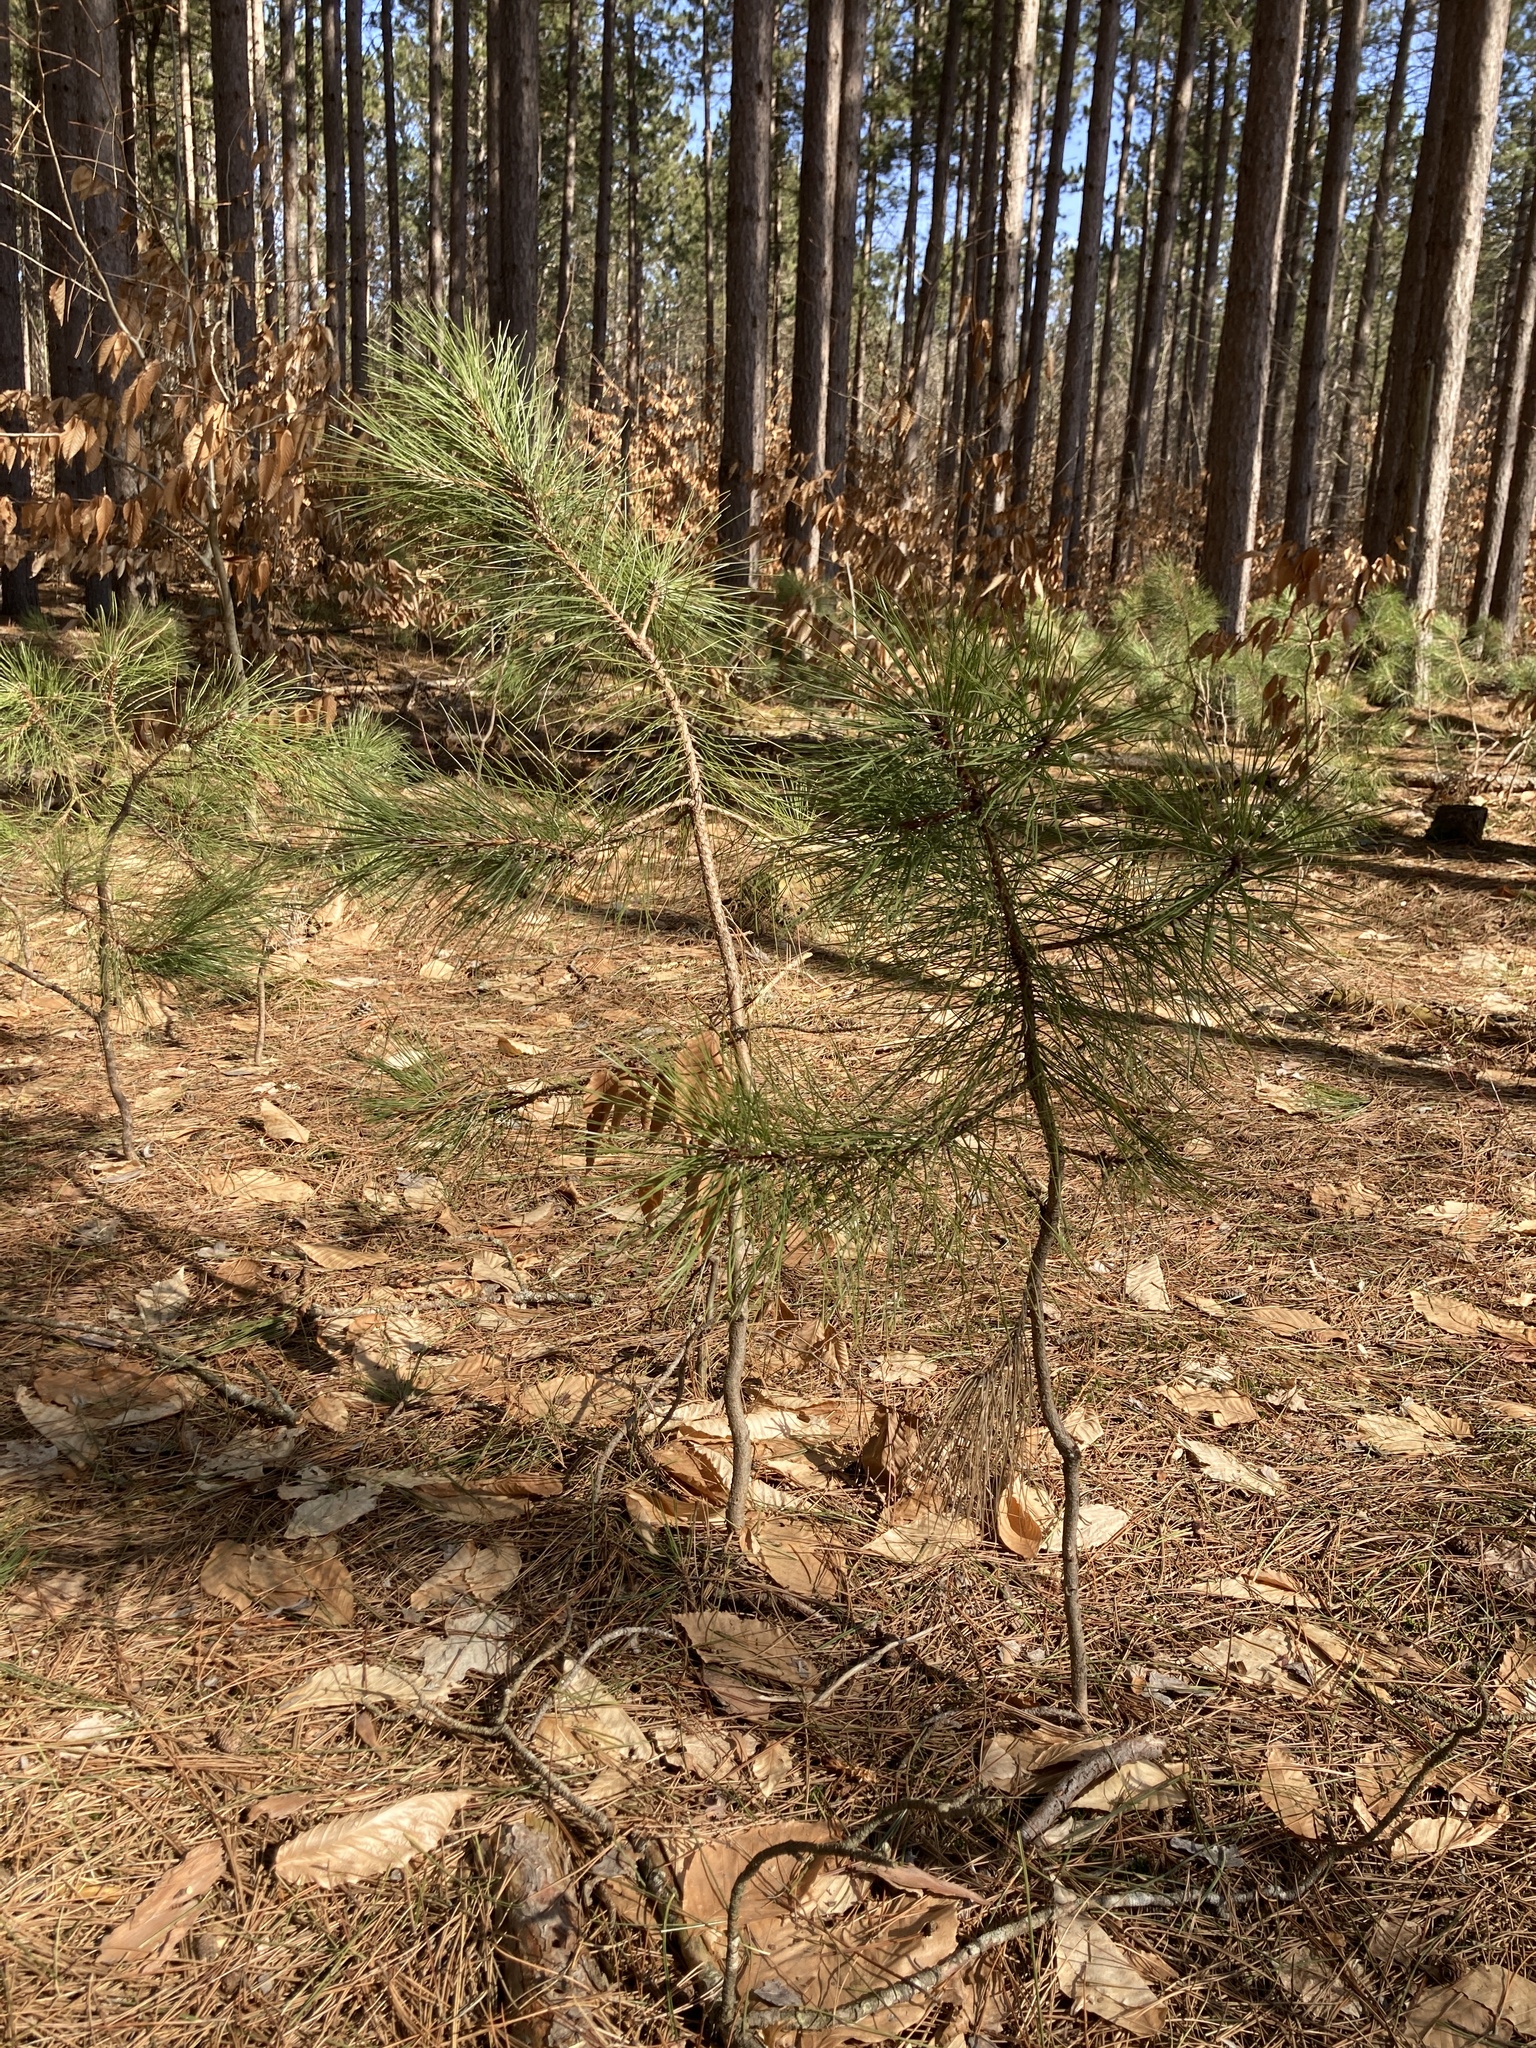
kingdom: Plantae
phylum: Tracheophyta
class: Pinopsida
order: Pinales
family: Pinaceae
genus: Pinus
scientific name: Pinus resinosa
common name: Norway pine
